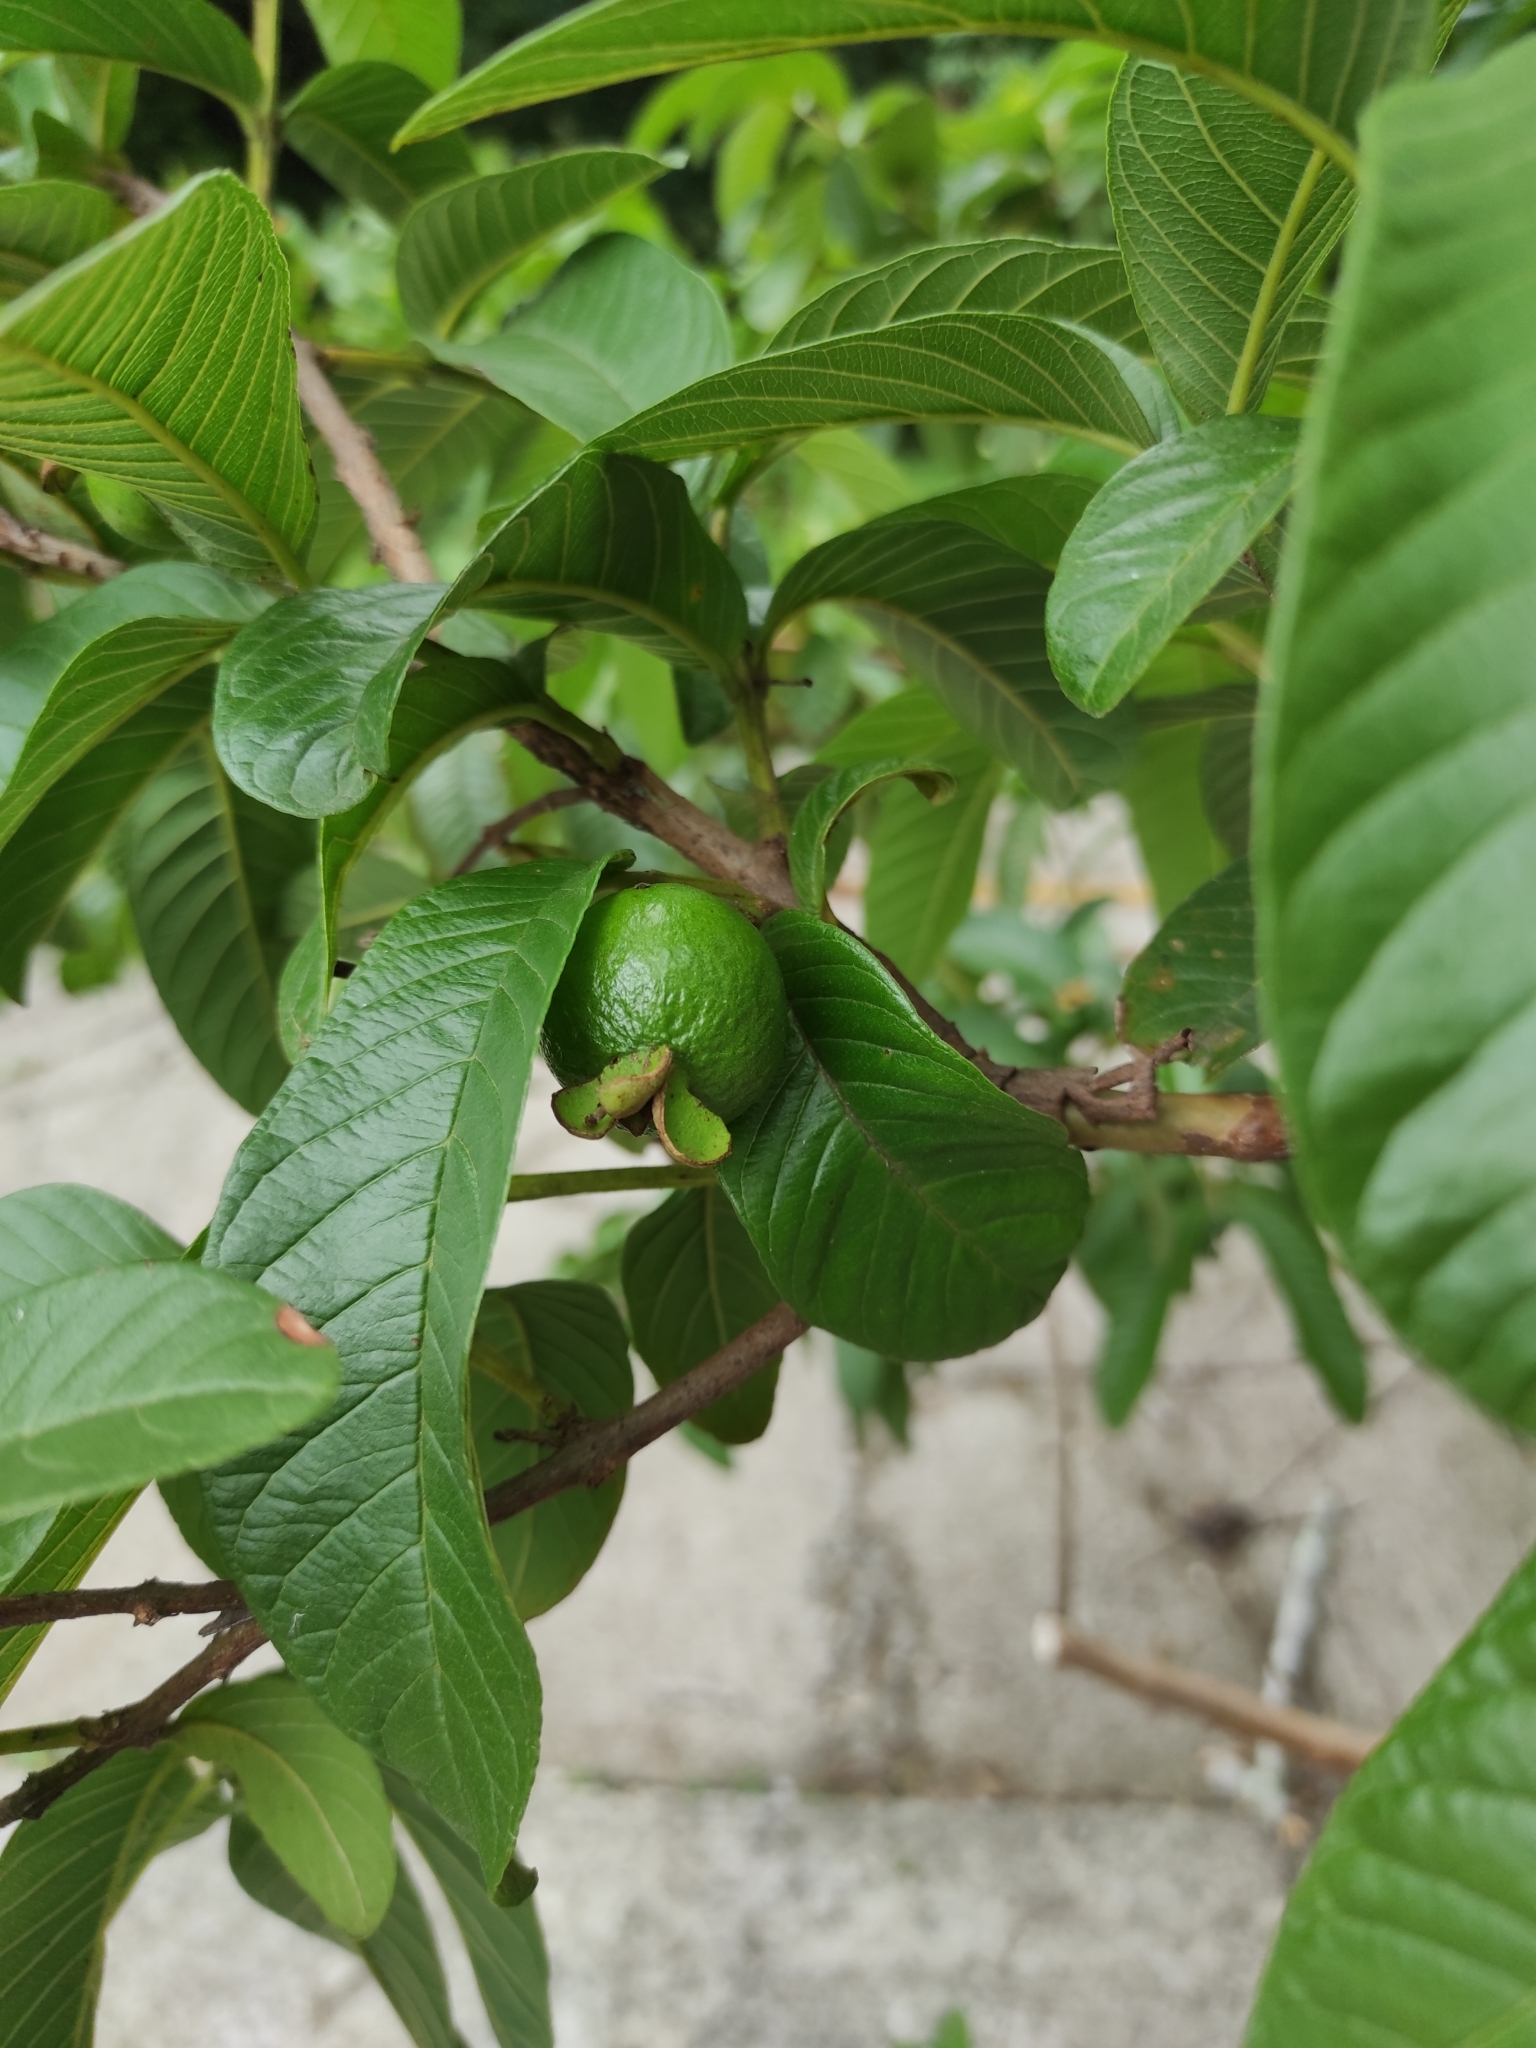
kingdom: Plantae
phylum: Tracheophyta
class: Magnoliopsida
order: Myrtales
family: Myrtaceae
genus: Psidium
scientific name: Psidium guajava
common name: Guava
